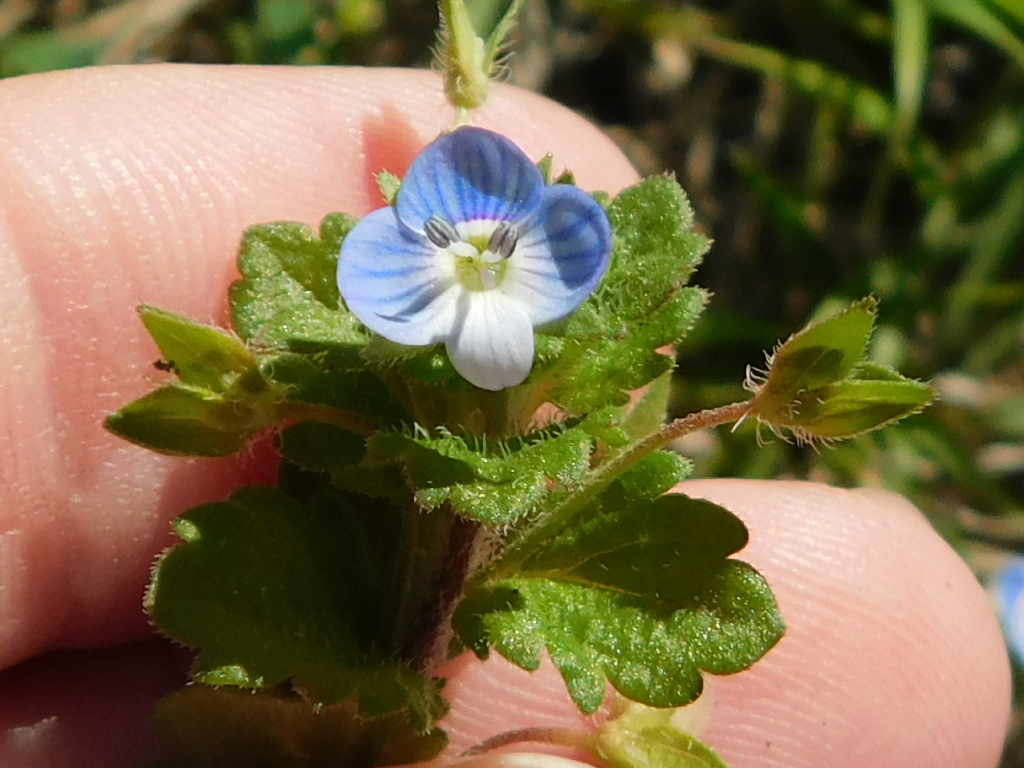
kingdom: Plantae
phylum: Tracheophyta
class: Magnoliopsida
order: Lamiales
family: Plantaginaceae
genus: Veronica
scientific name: Veronica persica
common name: Common field-speedwell
